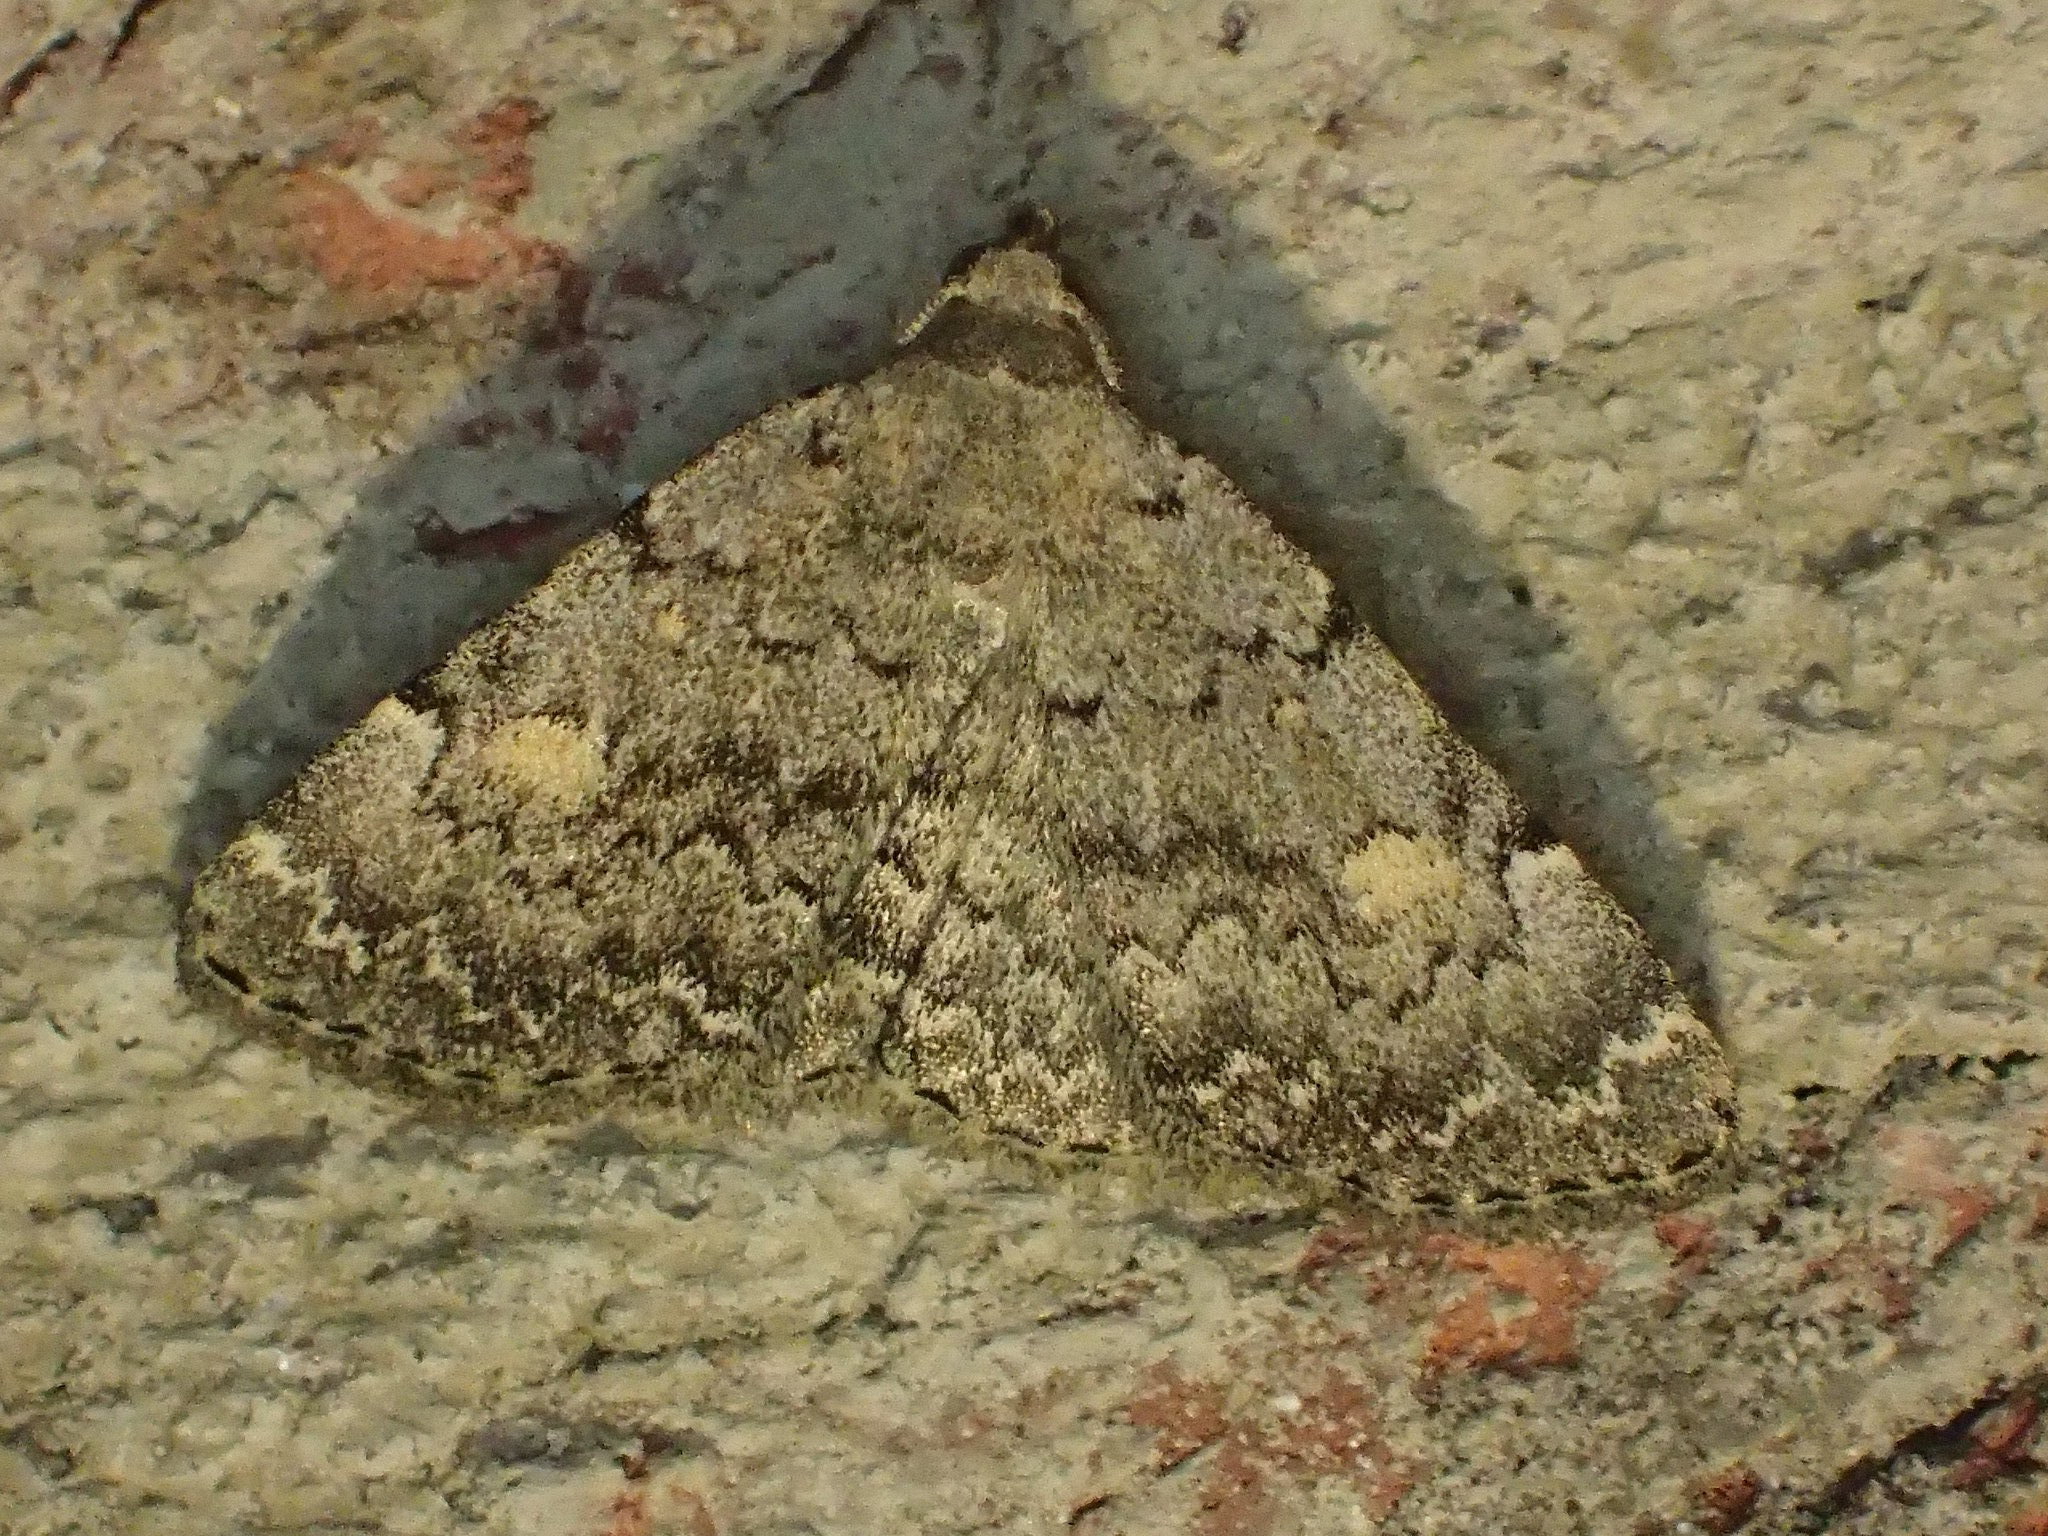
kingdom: Animalia
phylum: Arthropoda
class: Insecta
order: Lepidoptera
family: Erebidae
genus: Idia
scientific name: Idia aemula
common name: Common idia moth
